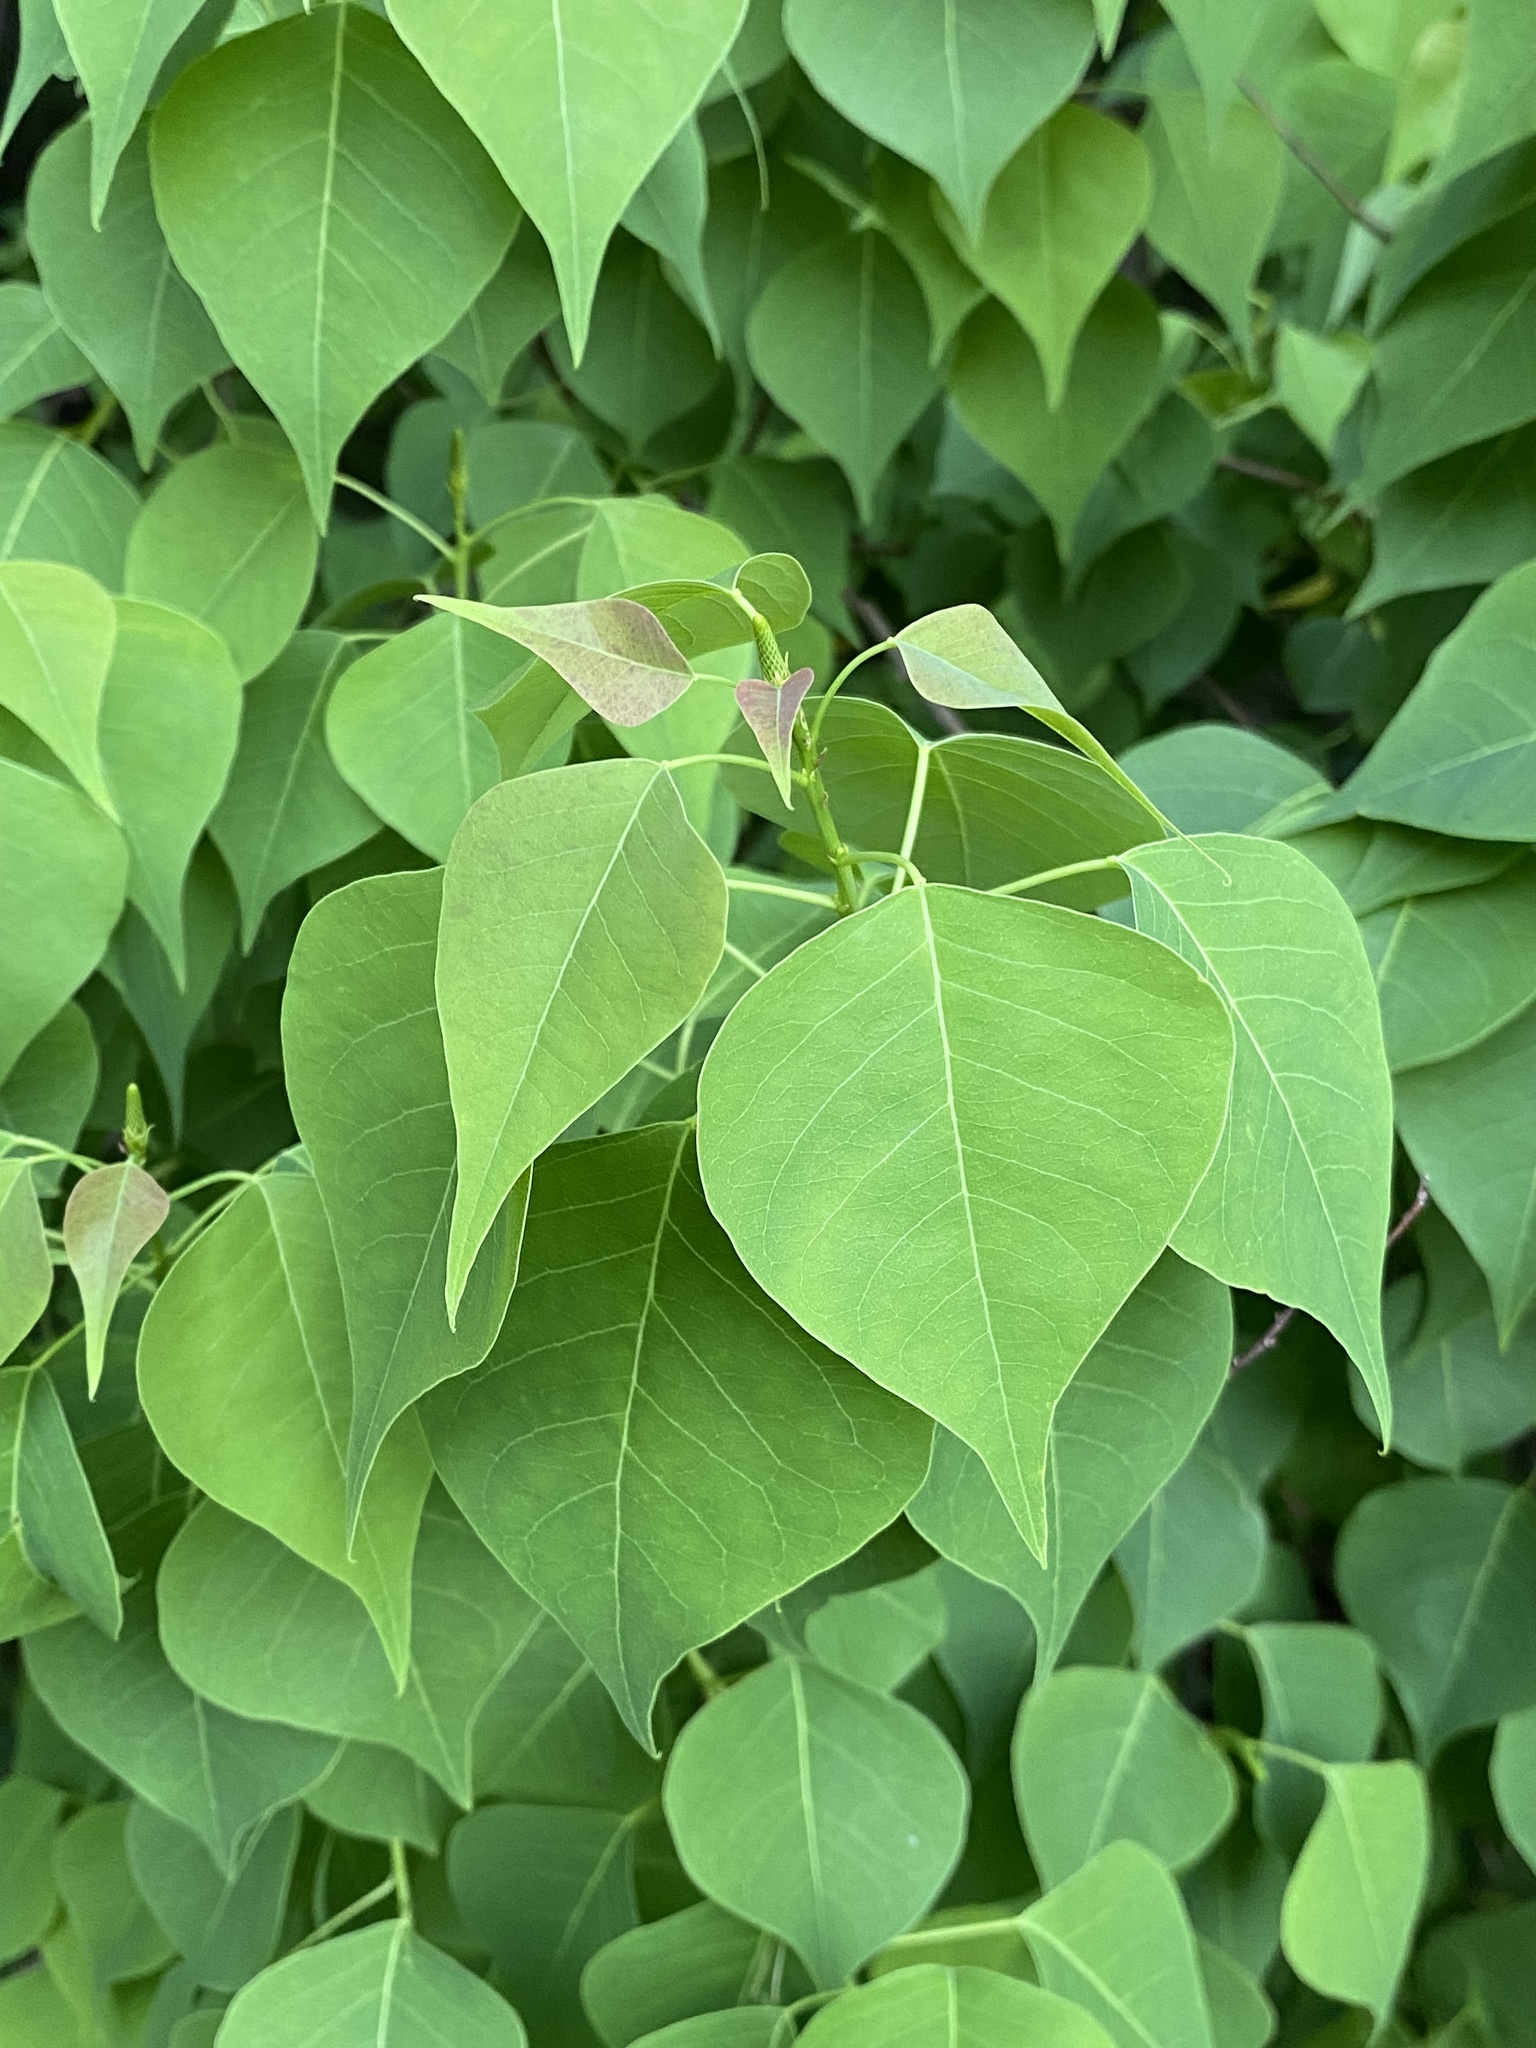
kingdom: Plantae
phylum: Tracheophyta
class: Magnoliopsida
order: Malpighiales
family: Euphorbiaceae
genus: Triadica
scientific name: Triadica sebifera
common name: Chinese tallow
